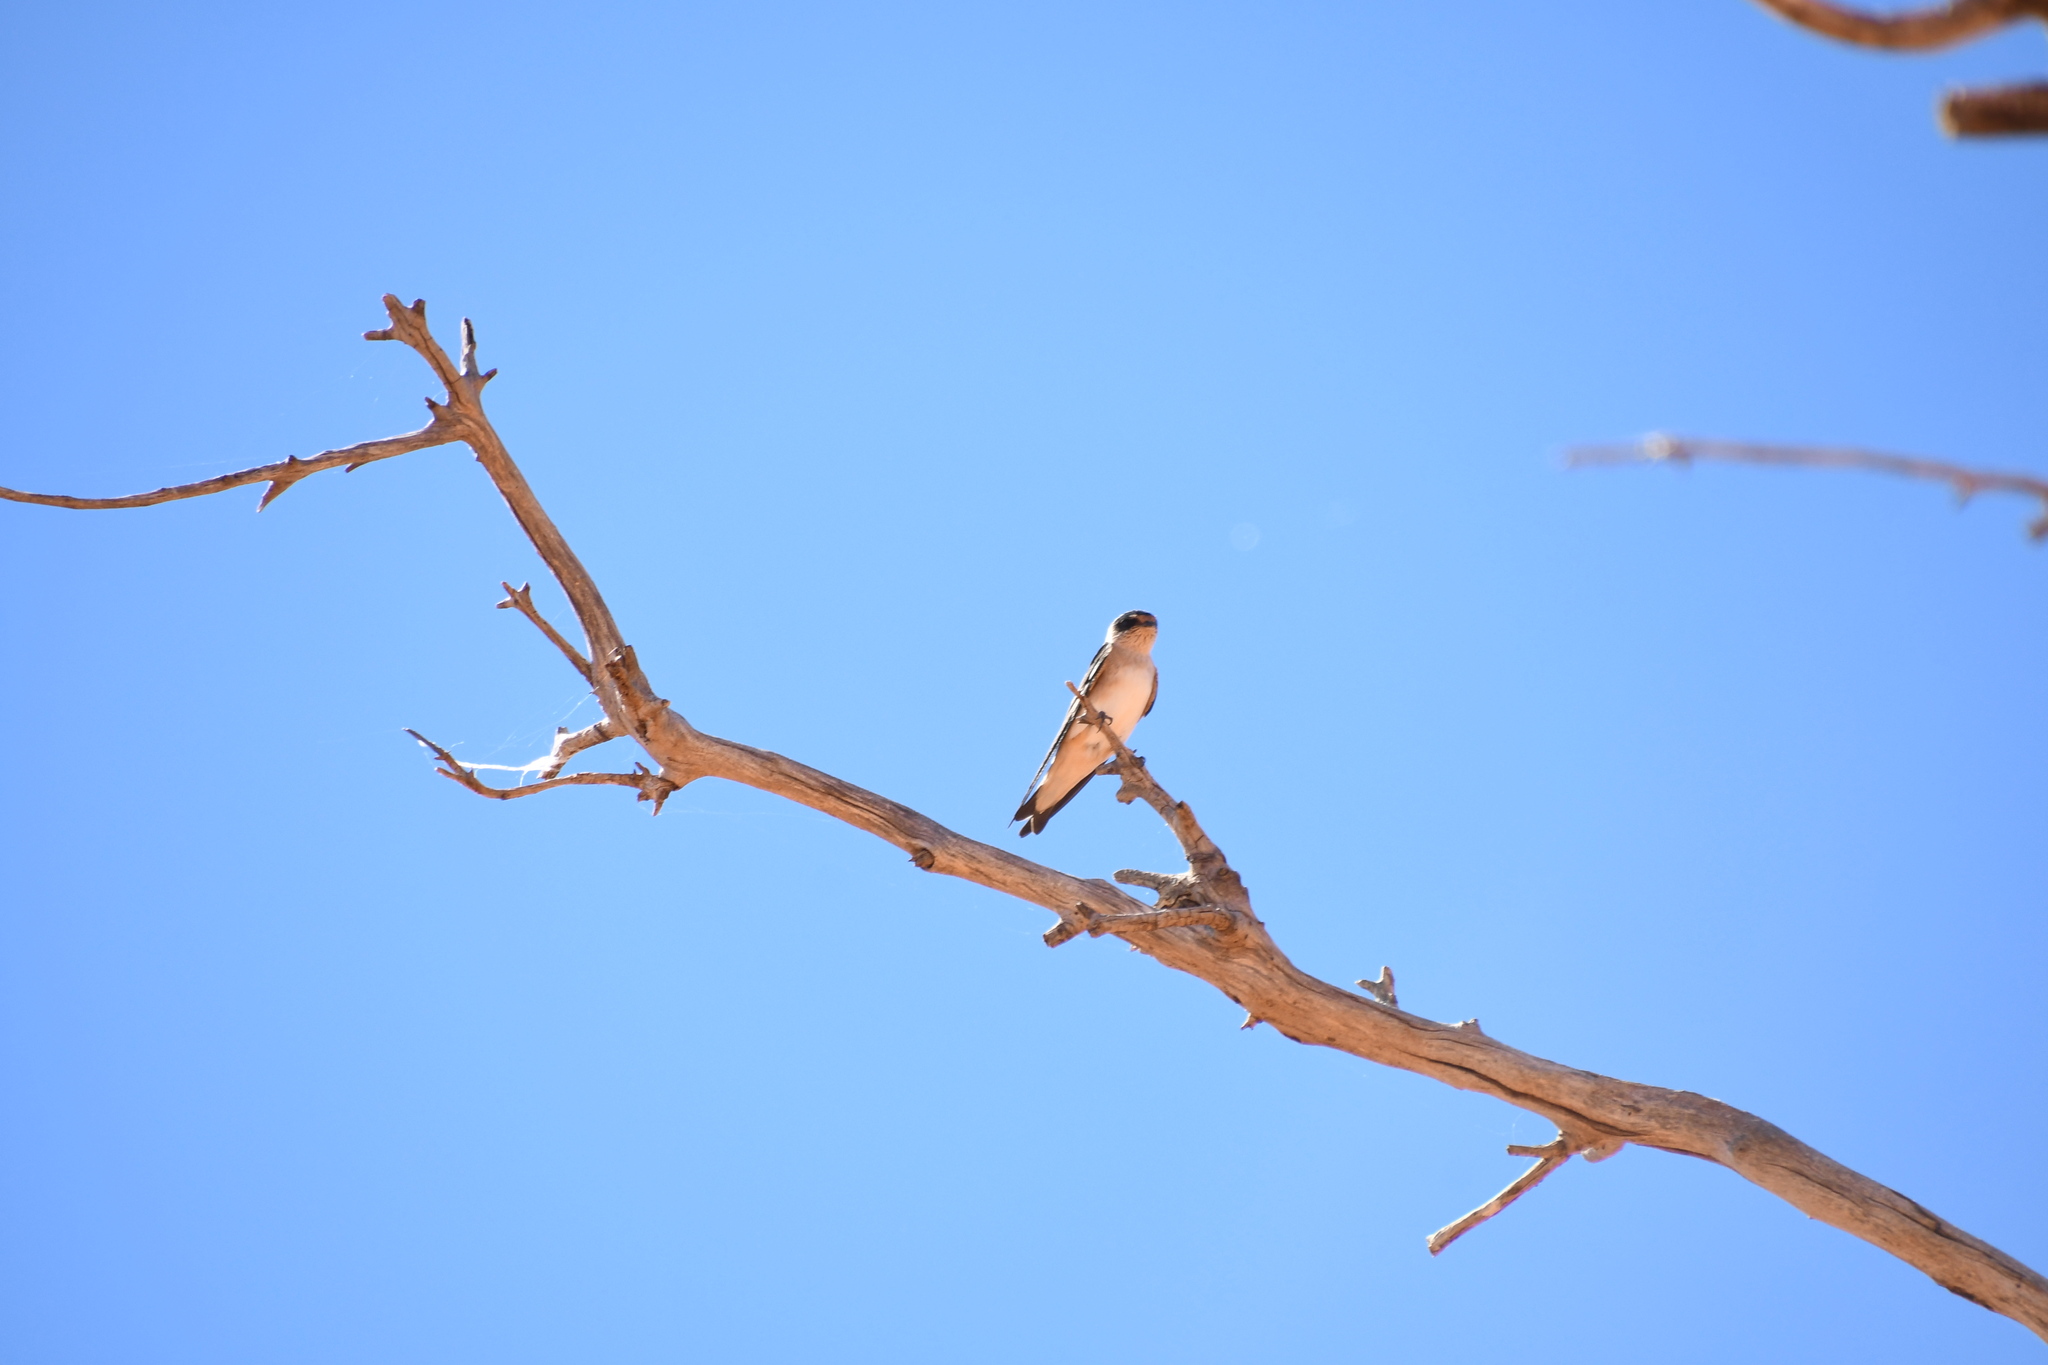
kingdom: Animalia
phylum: Chordata
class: Aves
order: Passeriformes
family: Hirundinidae
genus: Petrochelidon
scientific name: Petrochelidon nigricans
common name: Tree martin
